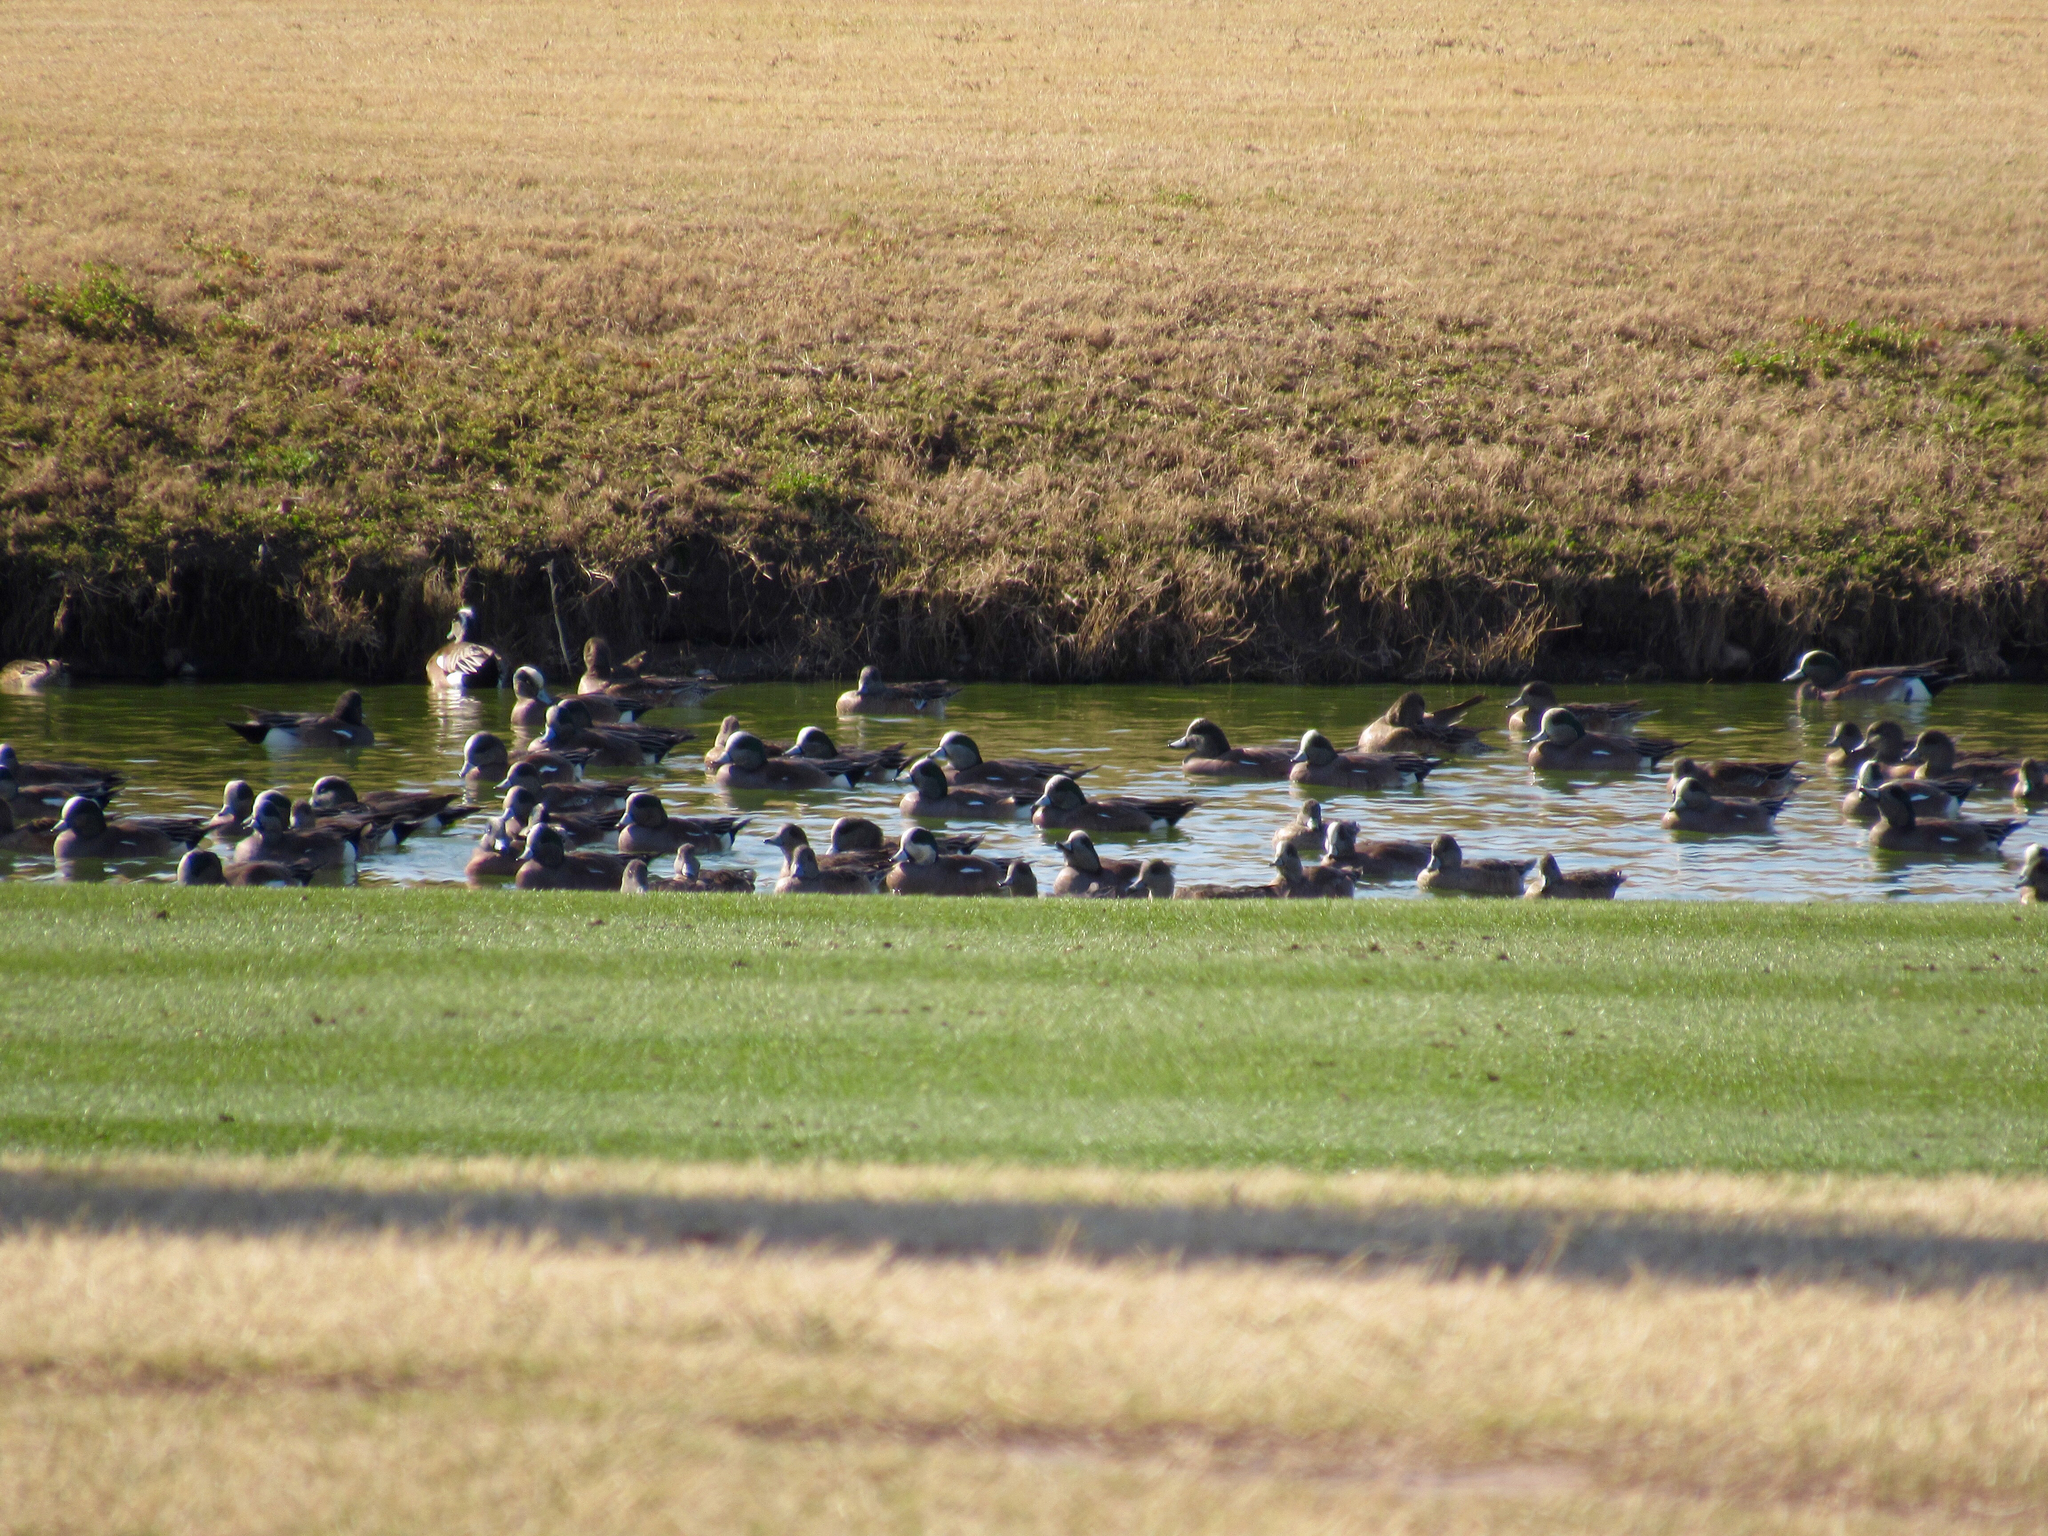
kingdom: Animalia
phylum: Chordata
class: Aves
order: Anseriformes
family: Anatidae
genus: Mareca
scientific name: Mareca americana
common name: American wigeon
